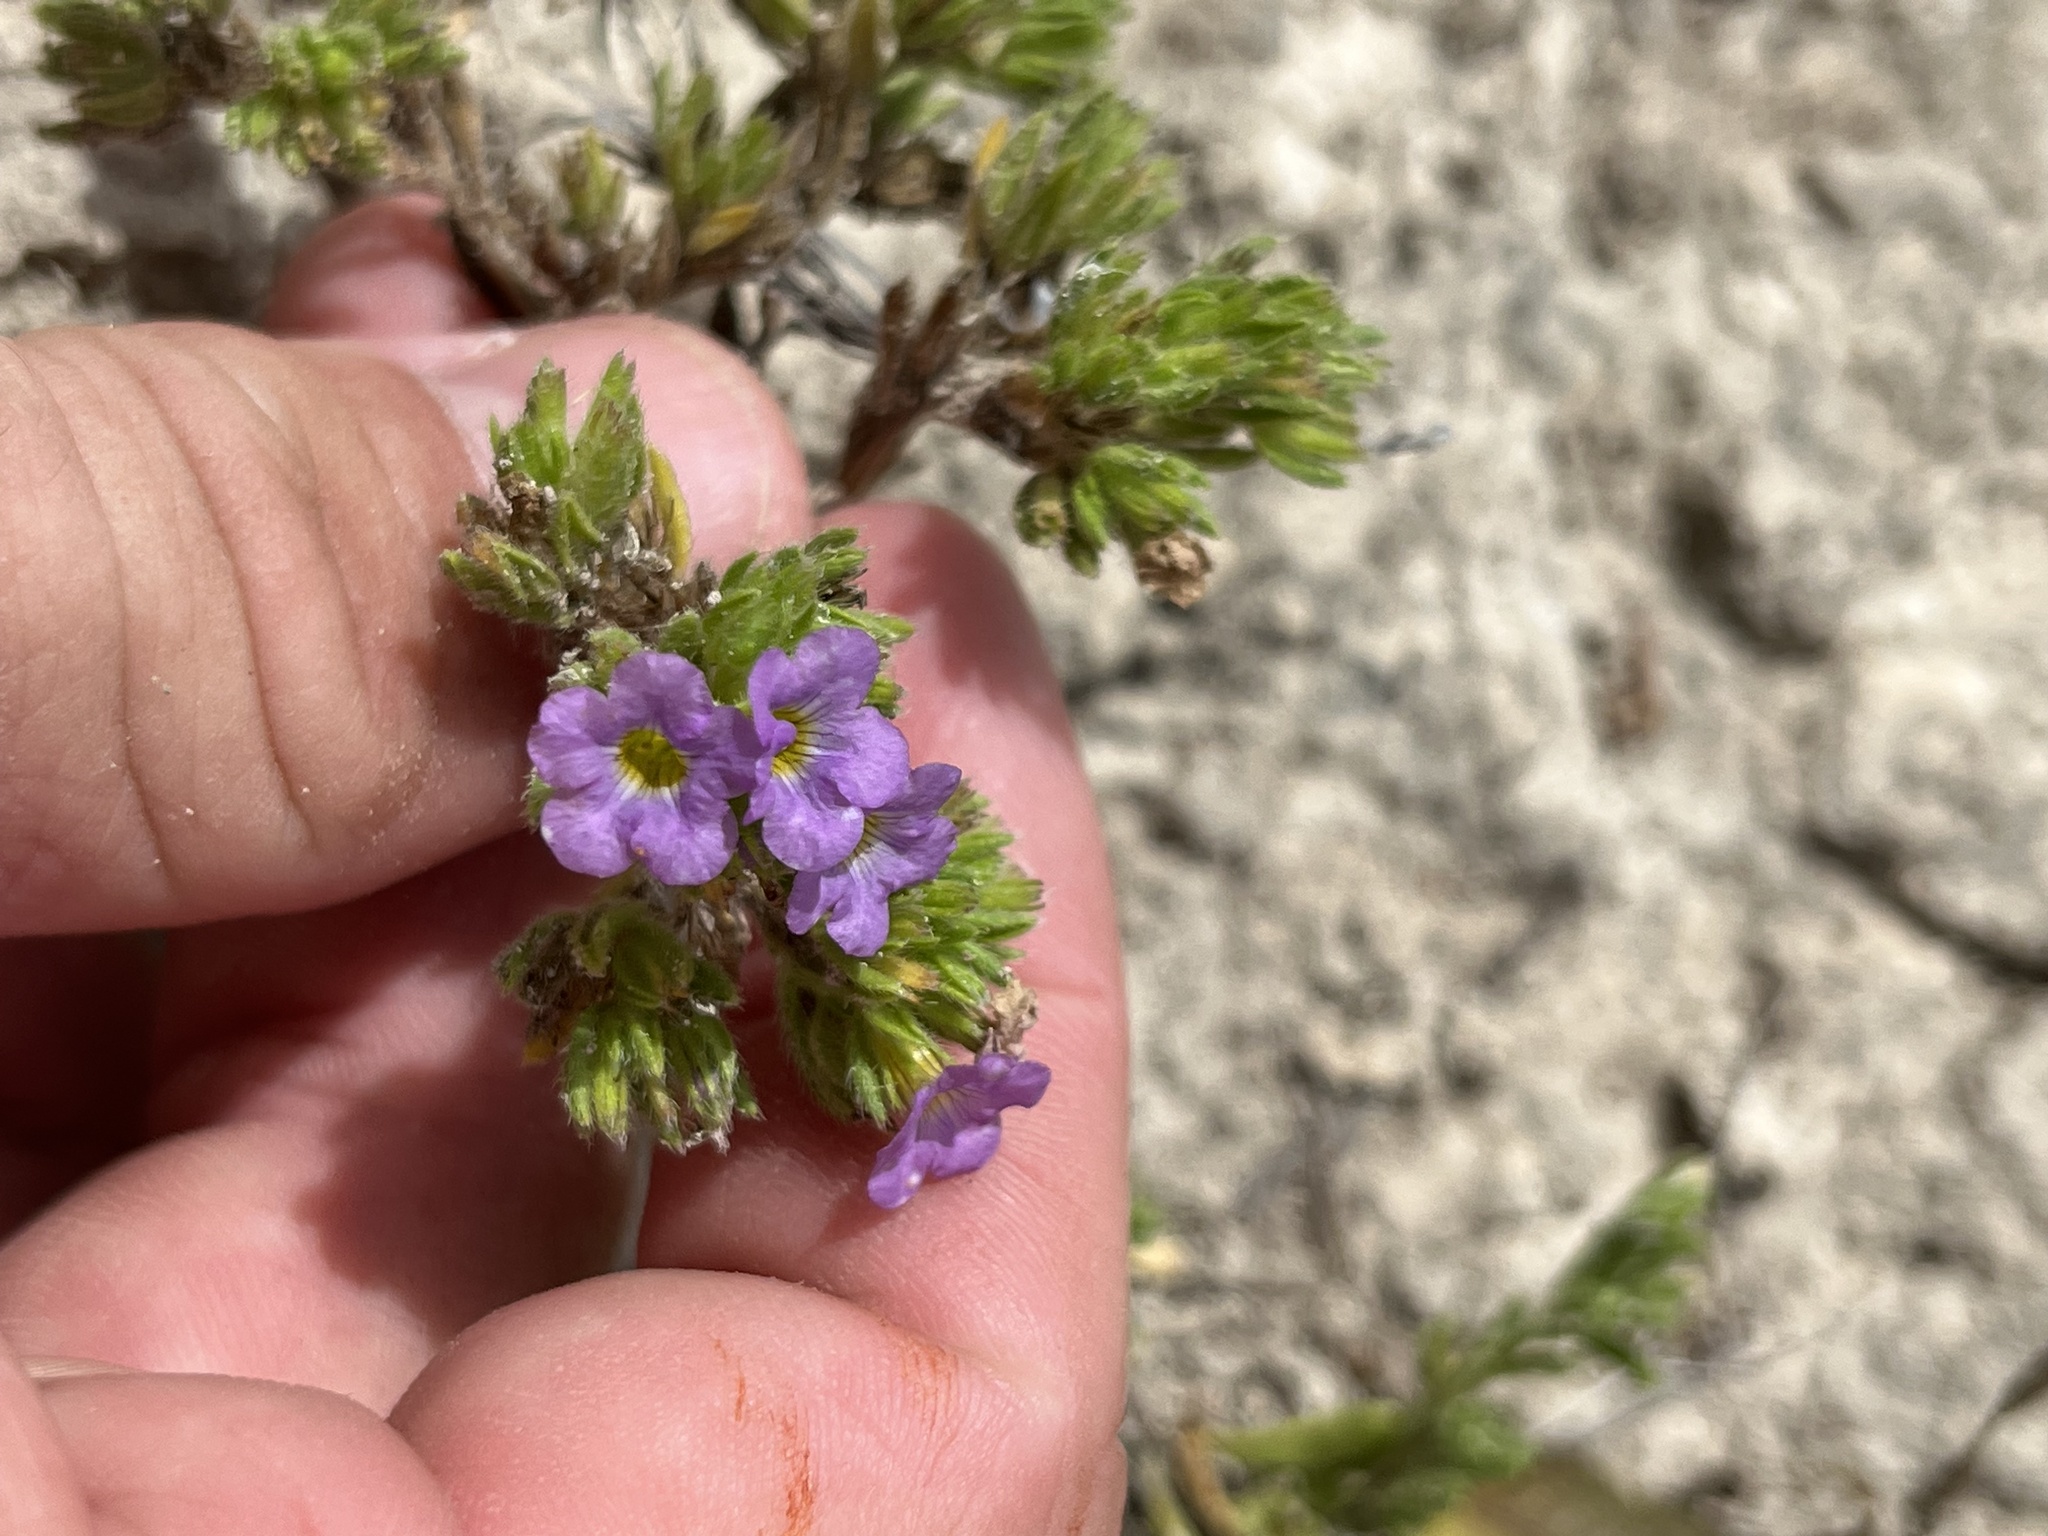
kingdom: Plantae
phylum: Tracheophyta
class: Magnoliopsida
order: Boraginales
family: Namaceae
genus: Nama
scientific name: Nama hispida
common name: Bristly nama
